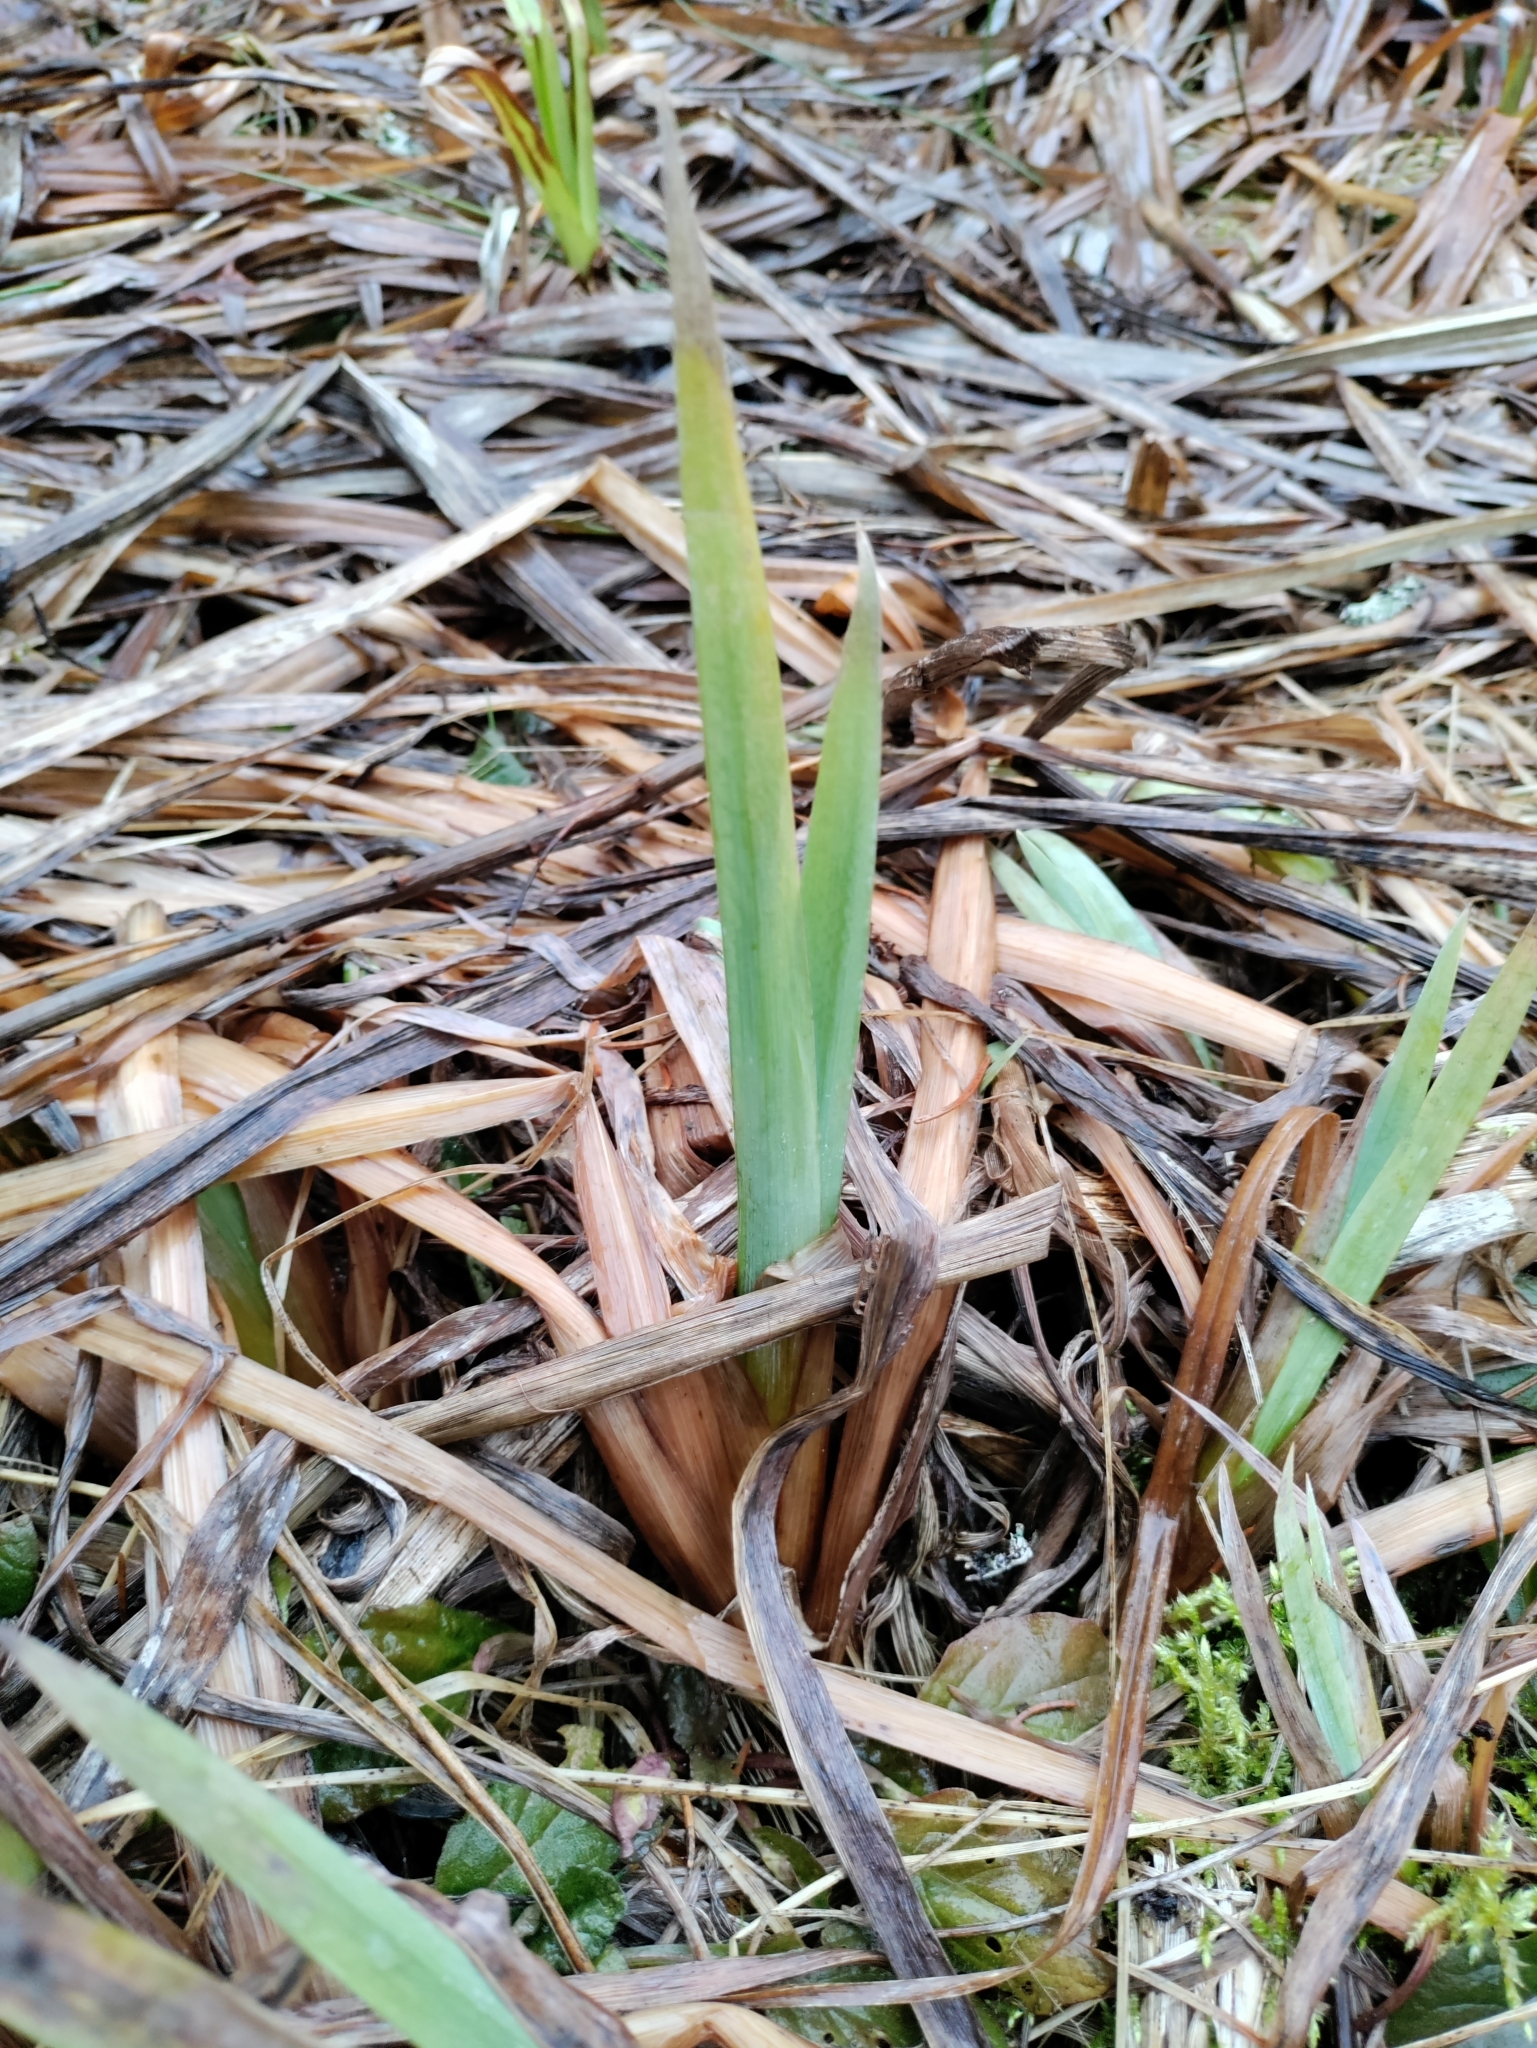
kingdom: Plantae
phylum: Tracheophyta
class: Liliopsida
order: Asparagales
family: Iridaceae
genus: Iris
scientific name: Iris pseudacorus
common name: Yellow flag
